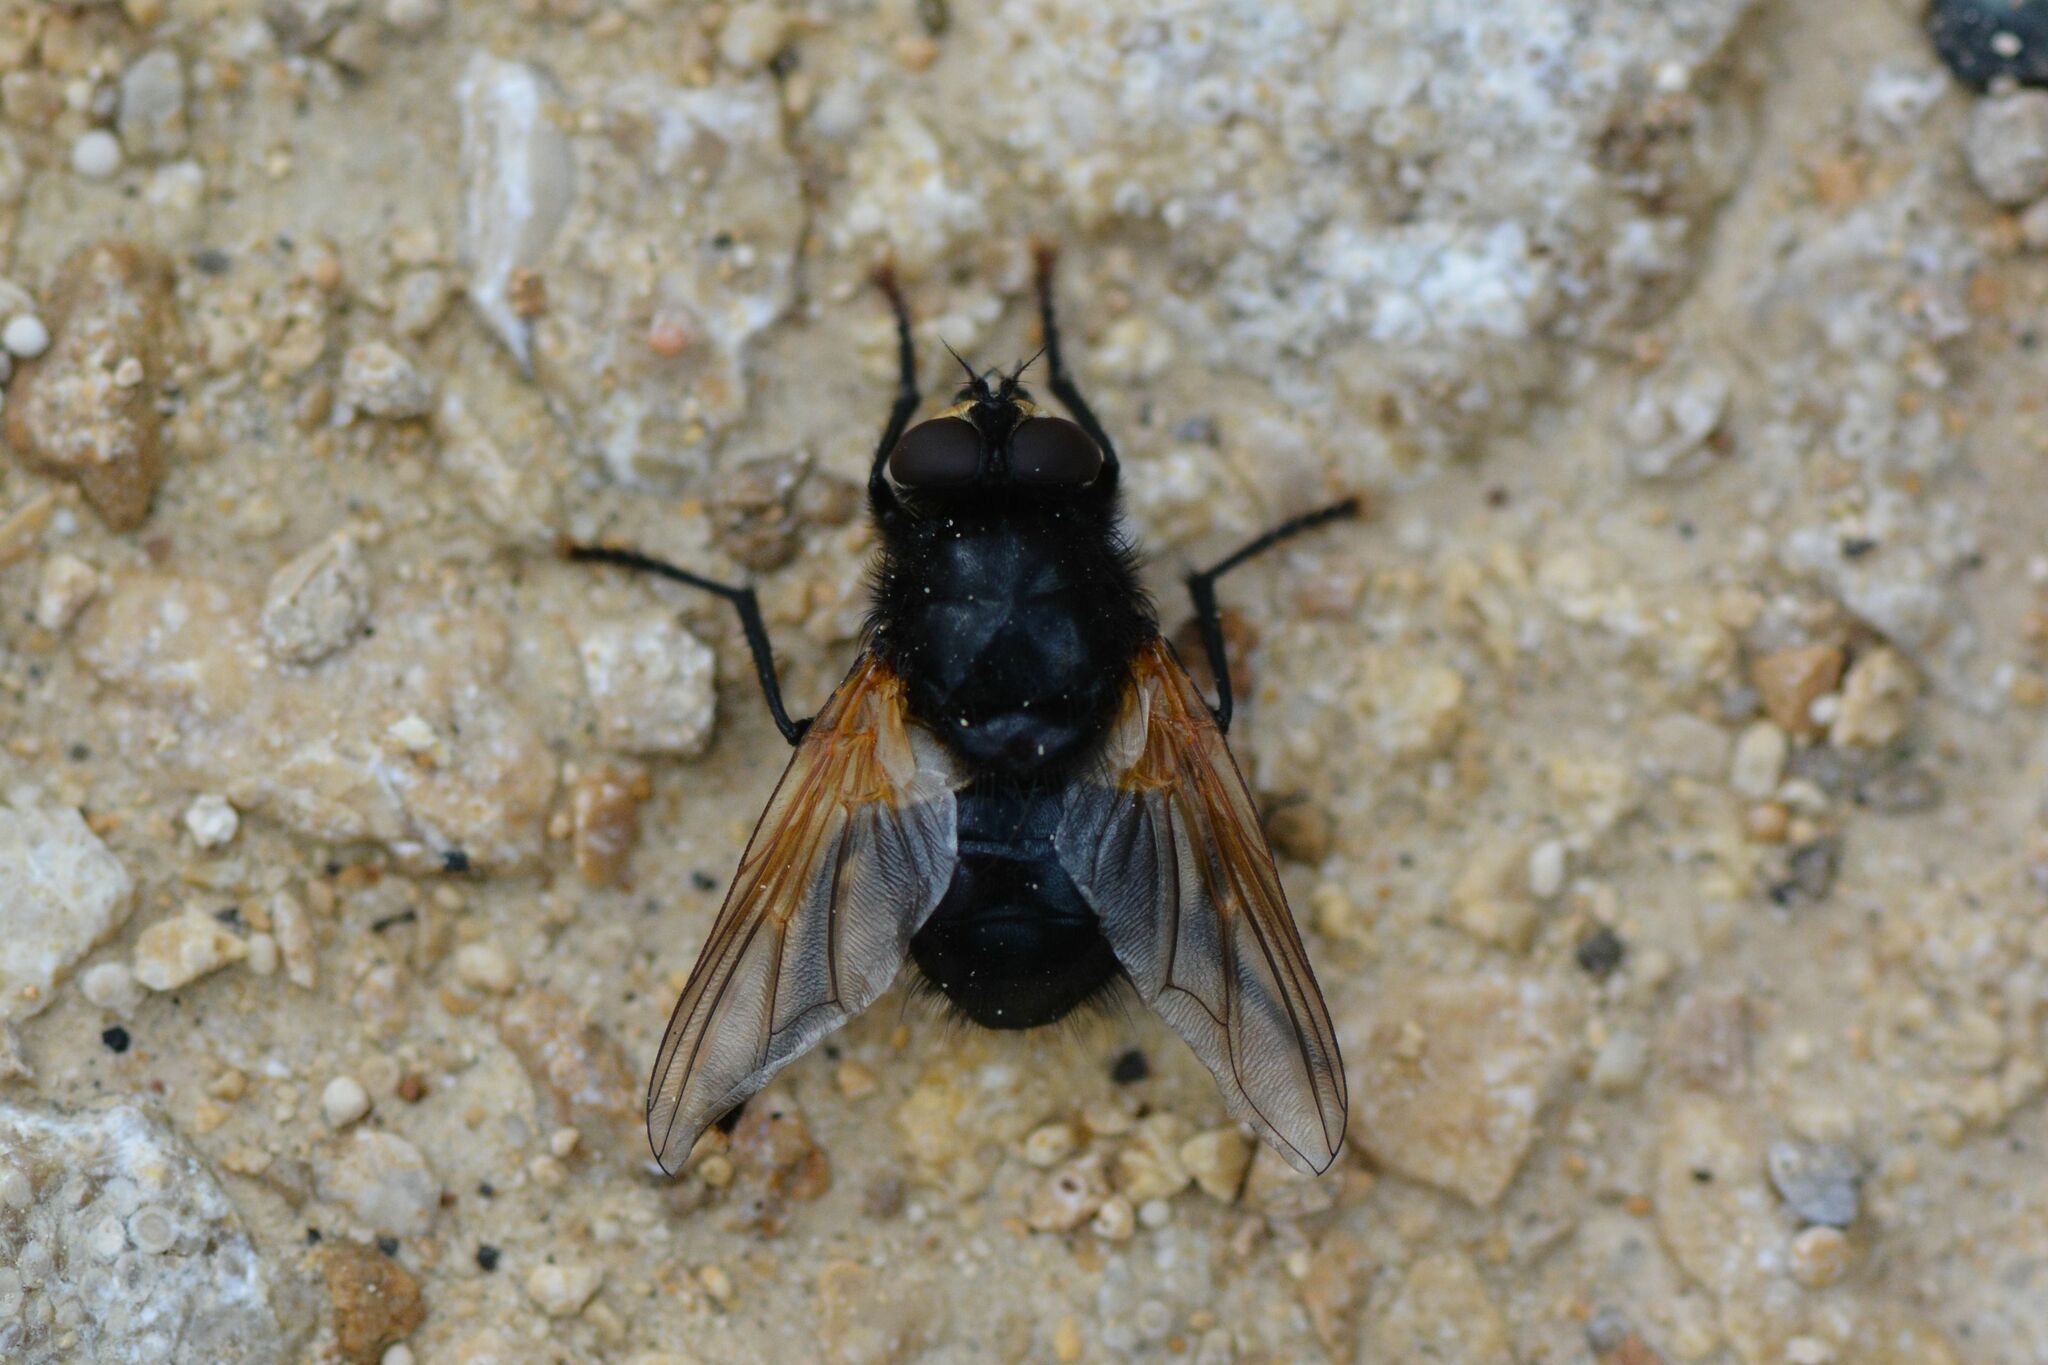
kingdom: Animalia
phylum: Arthropoda
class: Insecta
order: Diptera
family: Muscidae
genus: Mesembrina
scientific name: Mesembrina meridiana
